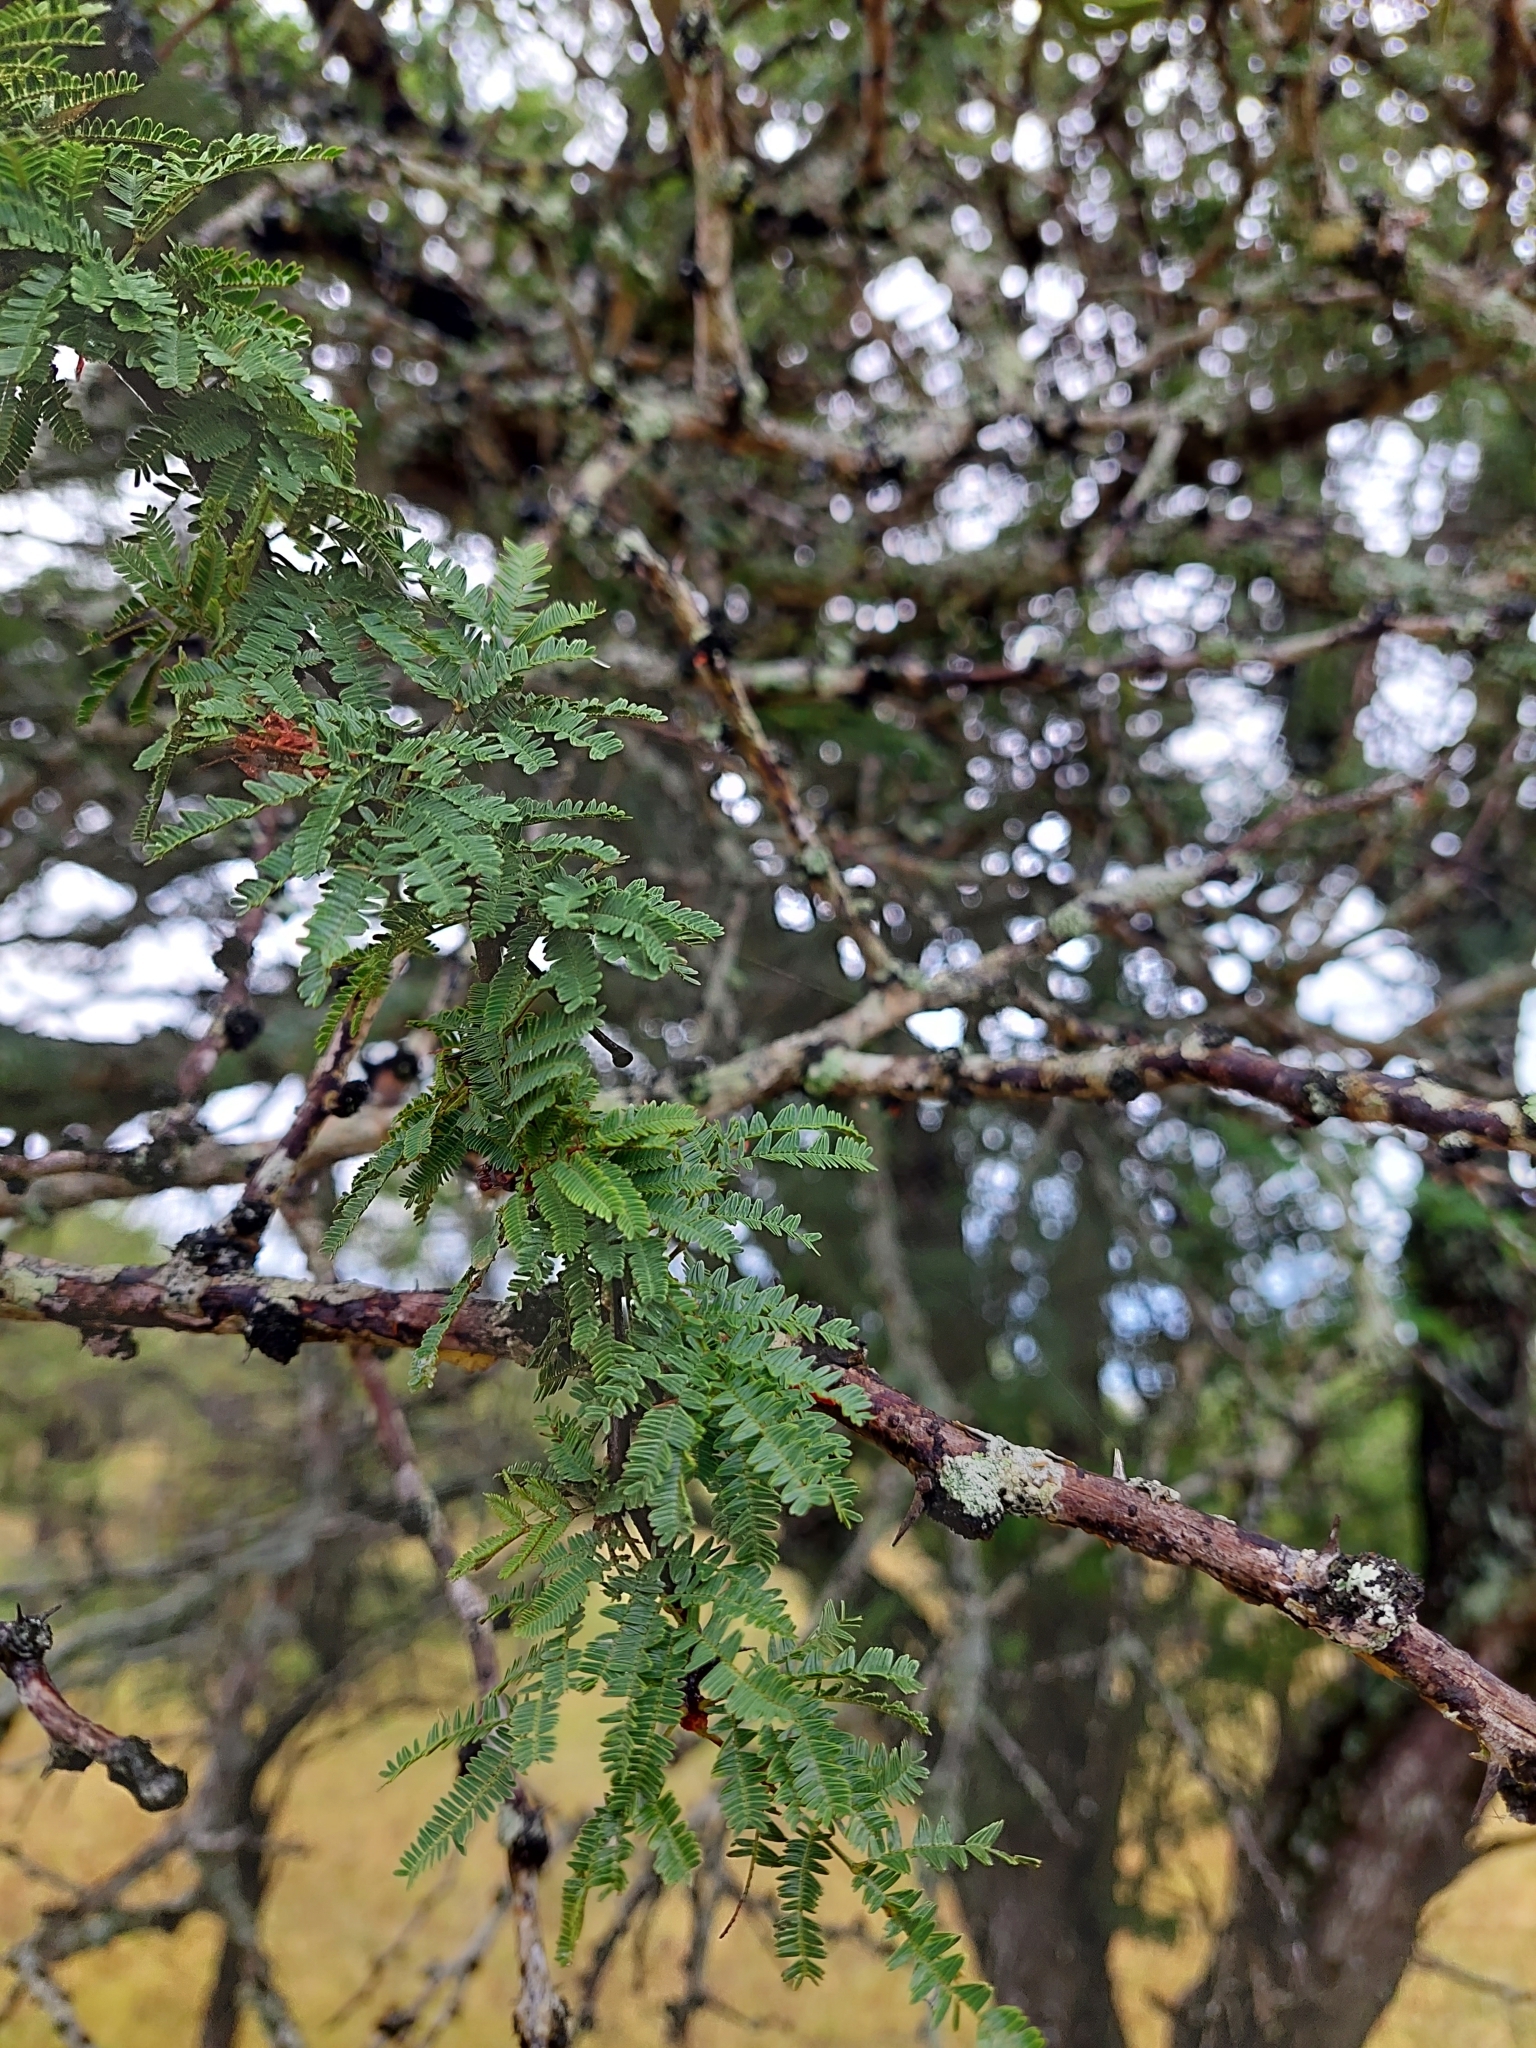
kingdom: Plantae
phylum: Tracheophyta
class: Magnoliopsida
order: Fabales
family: Fabaceae
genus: Vachellia
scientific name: Vachellia astringens
